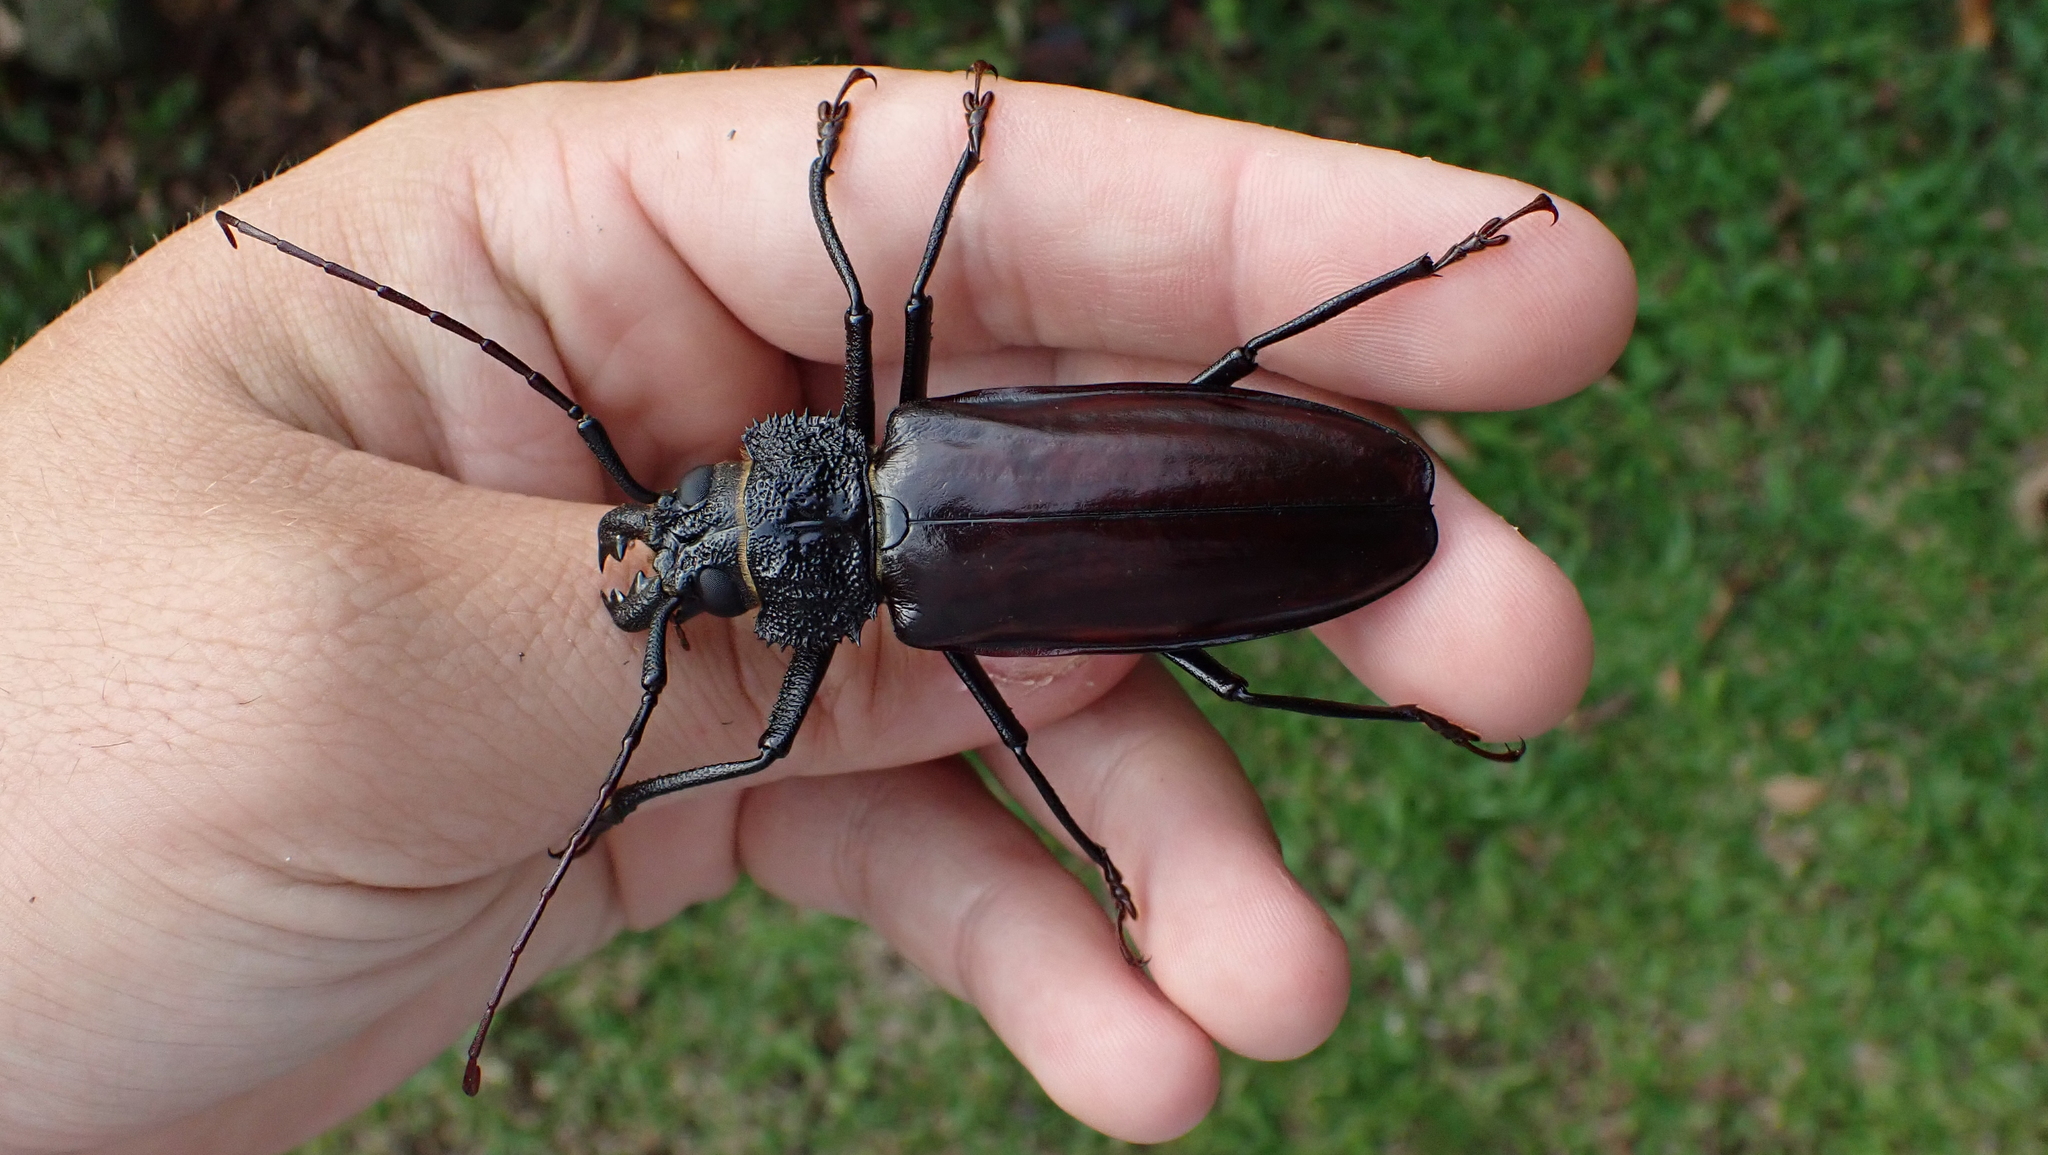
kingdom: Animalia
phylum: Arthropoda
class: Insecta
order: Coleoptera
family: Cerambycidae
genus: Mallodonopsis
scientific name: Mallodonopsis mexicanus
